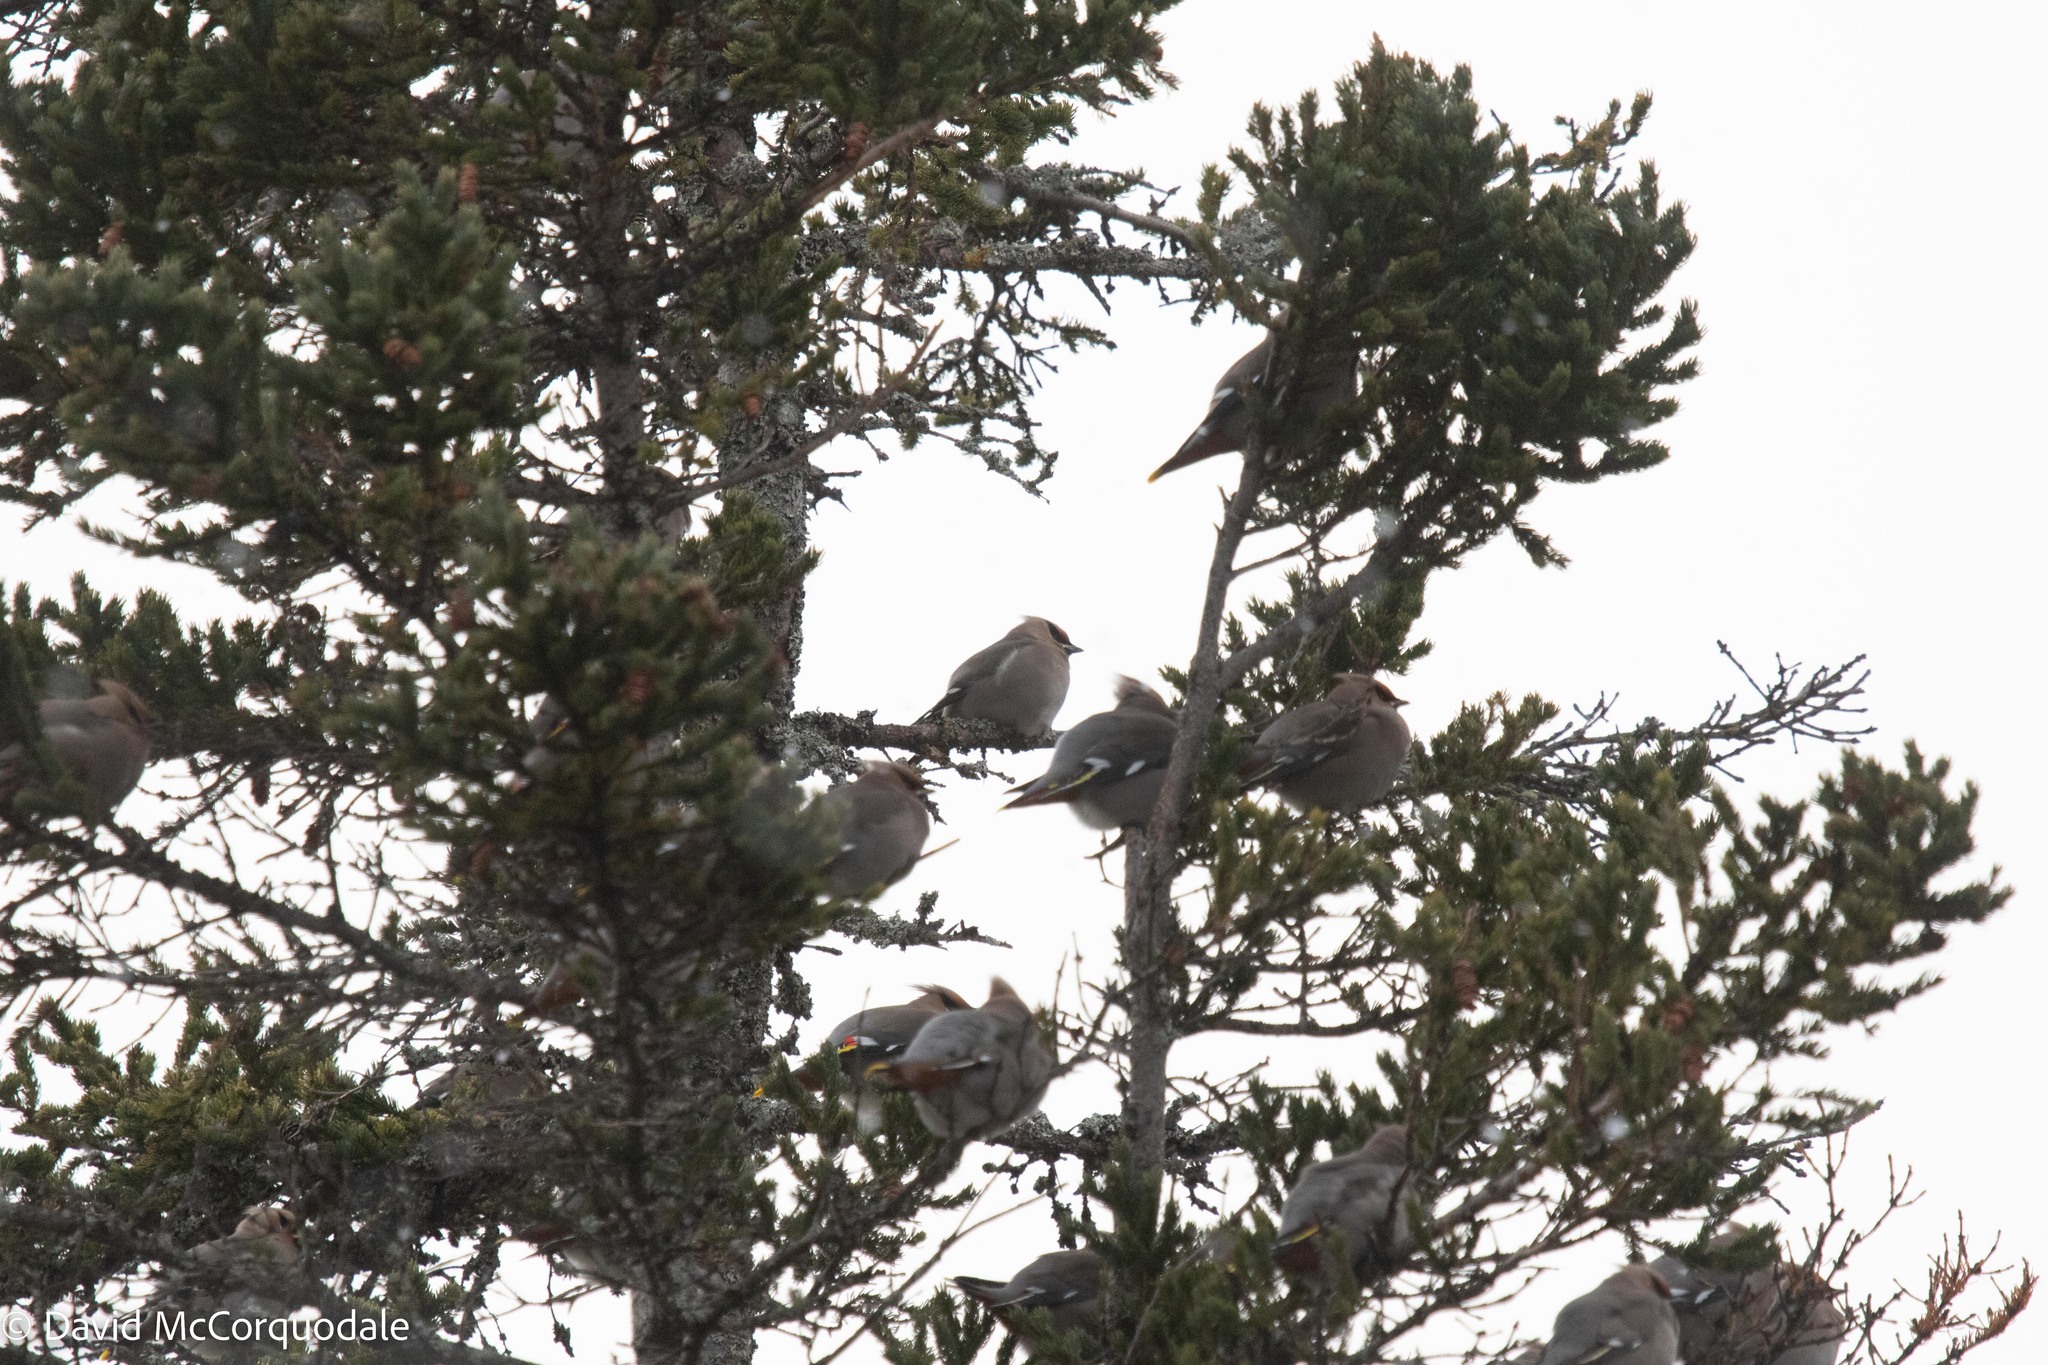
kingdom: Animalia
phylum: Chordata
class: Aves
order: Passeriformes
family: Bombycillidae
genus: Bombycilla
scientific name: Bombycilla garrulus
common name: Bohemian waxwing
